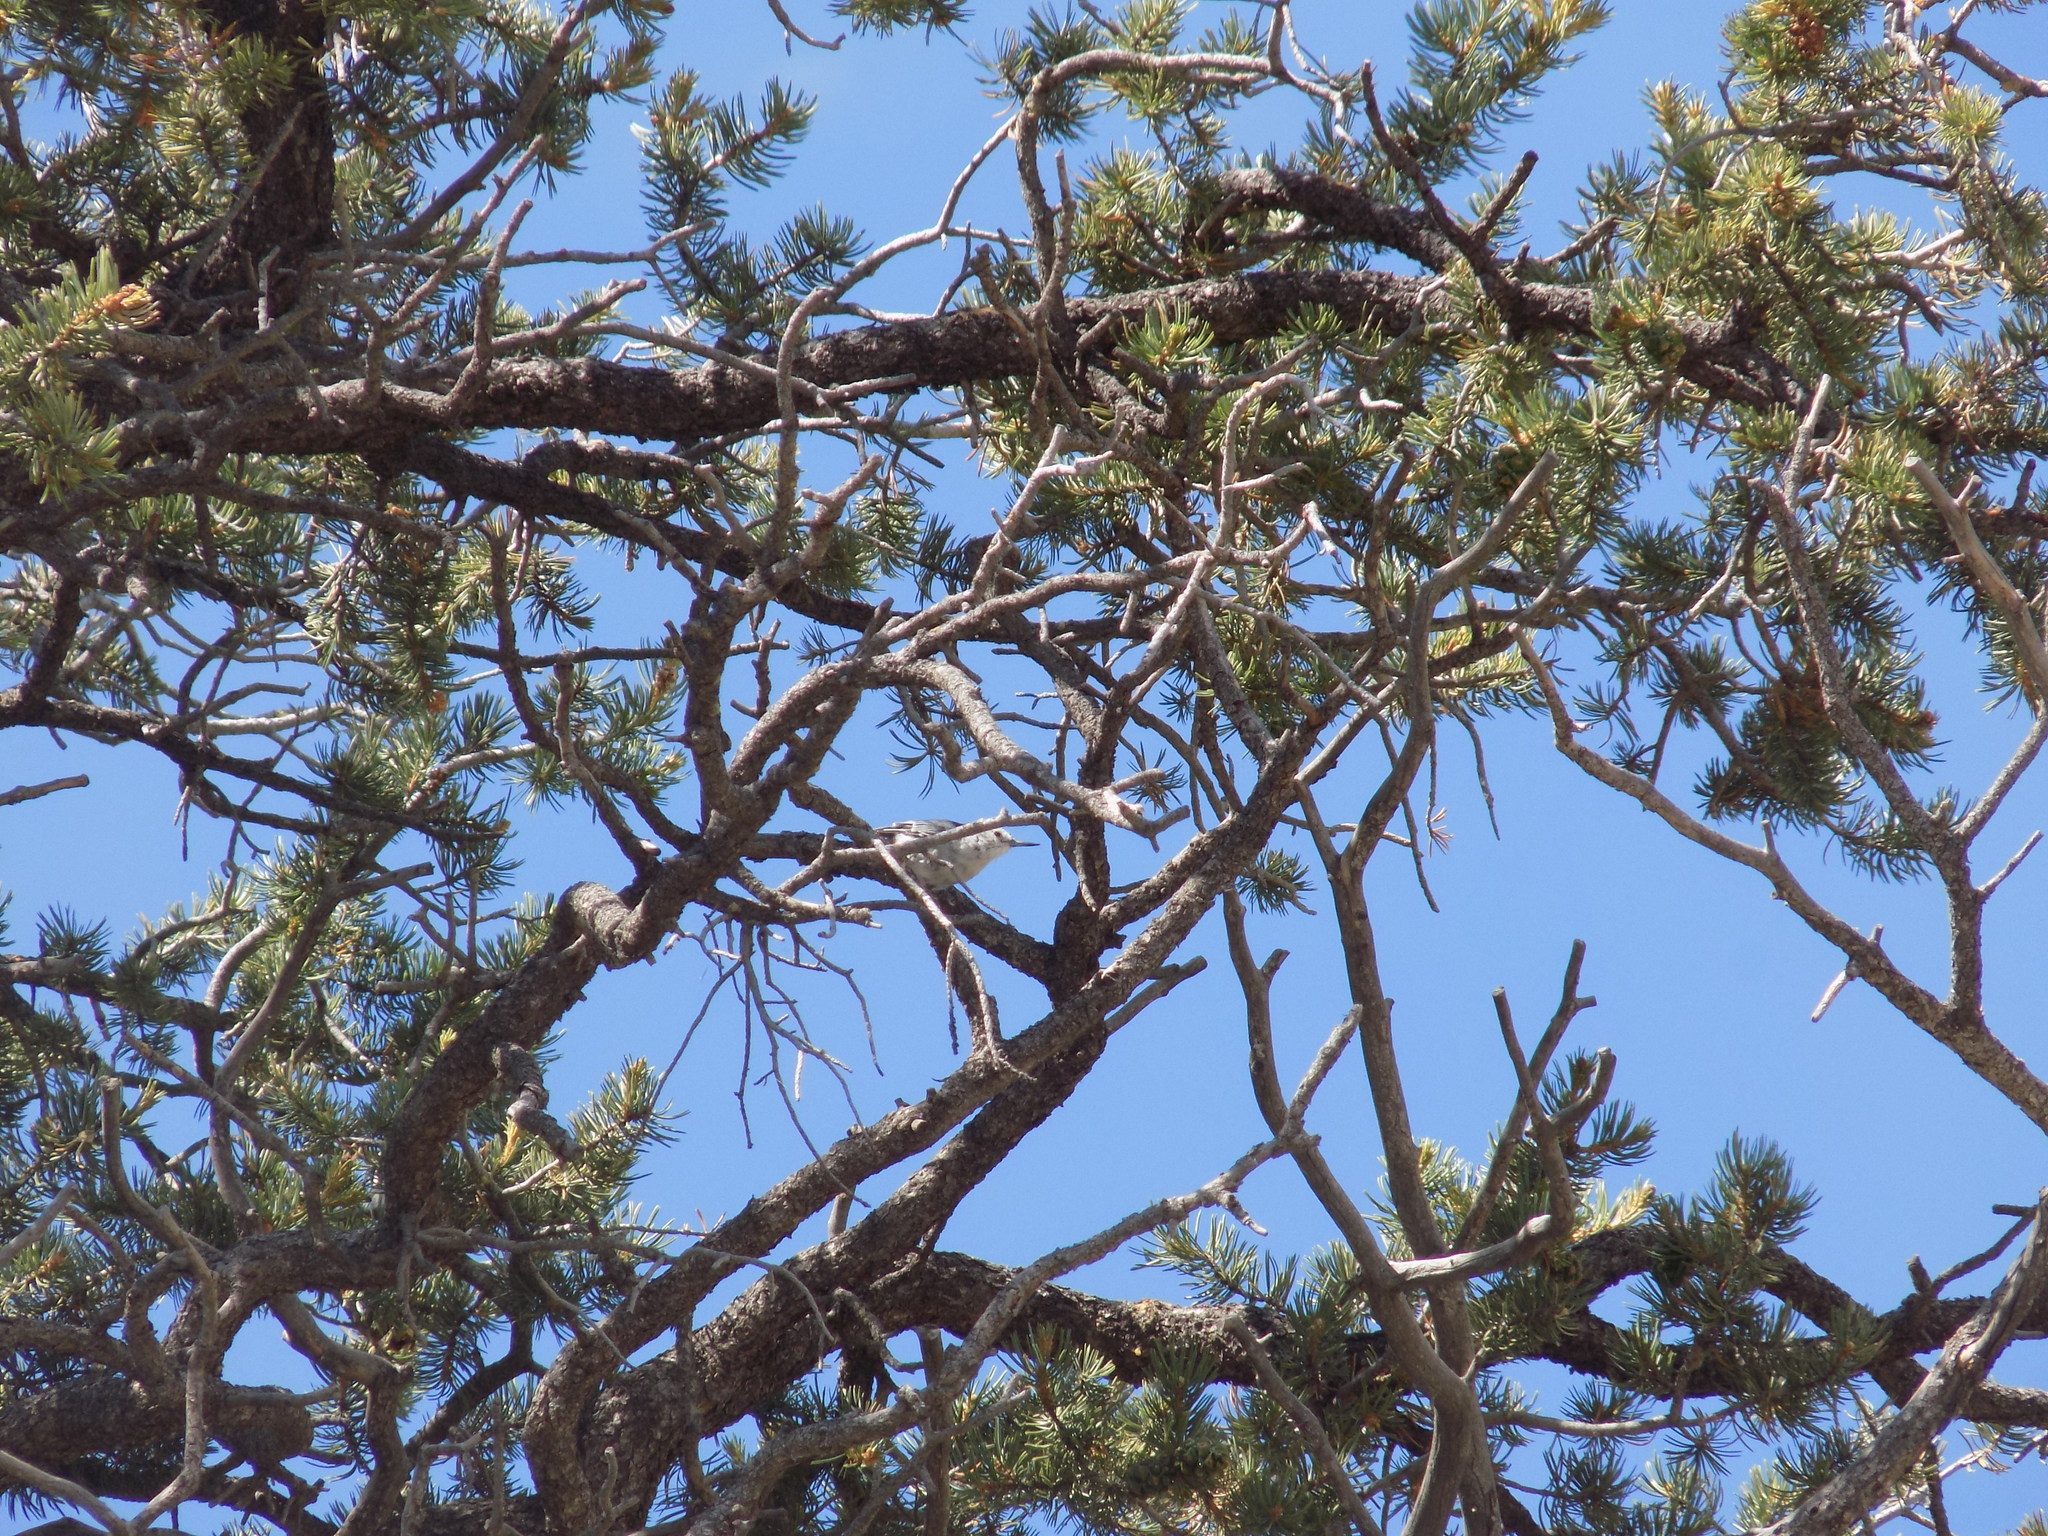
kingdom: Animalia
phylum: Chordata
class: Aves
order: Passeriformes
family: Sittidae
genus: Sitta
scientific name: Sitta carolinensis
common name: White-breasted nuthatch
